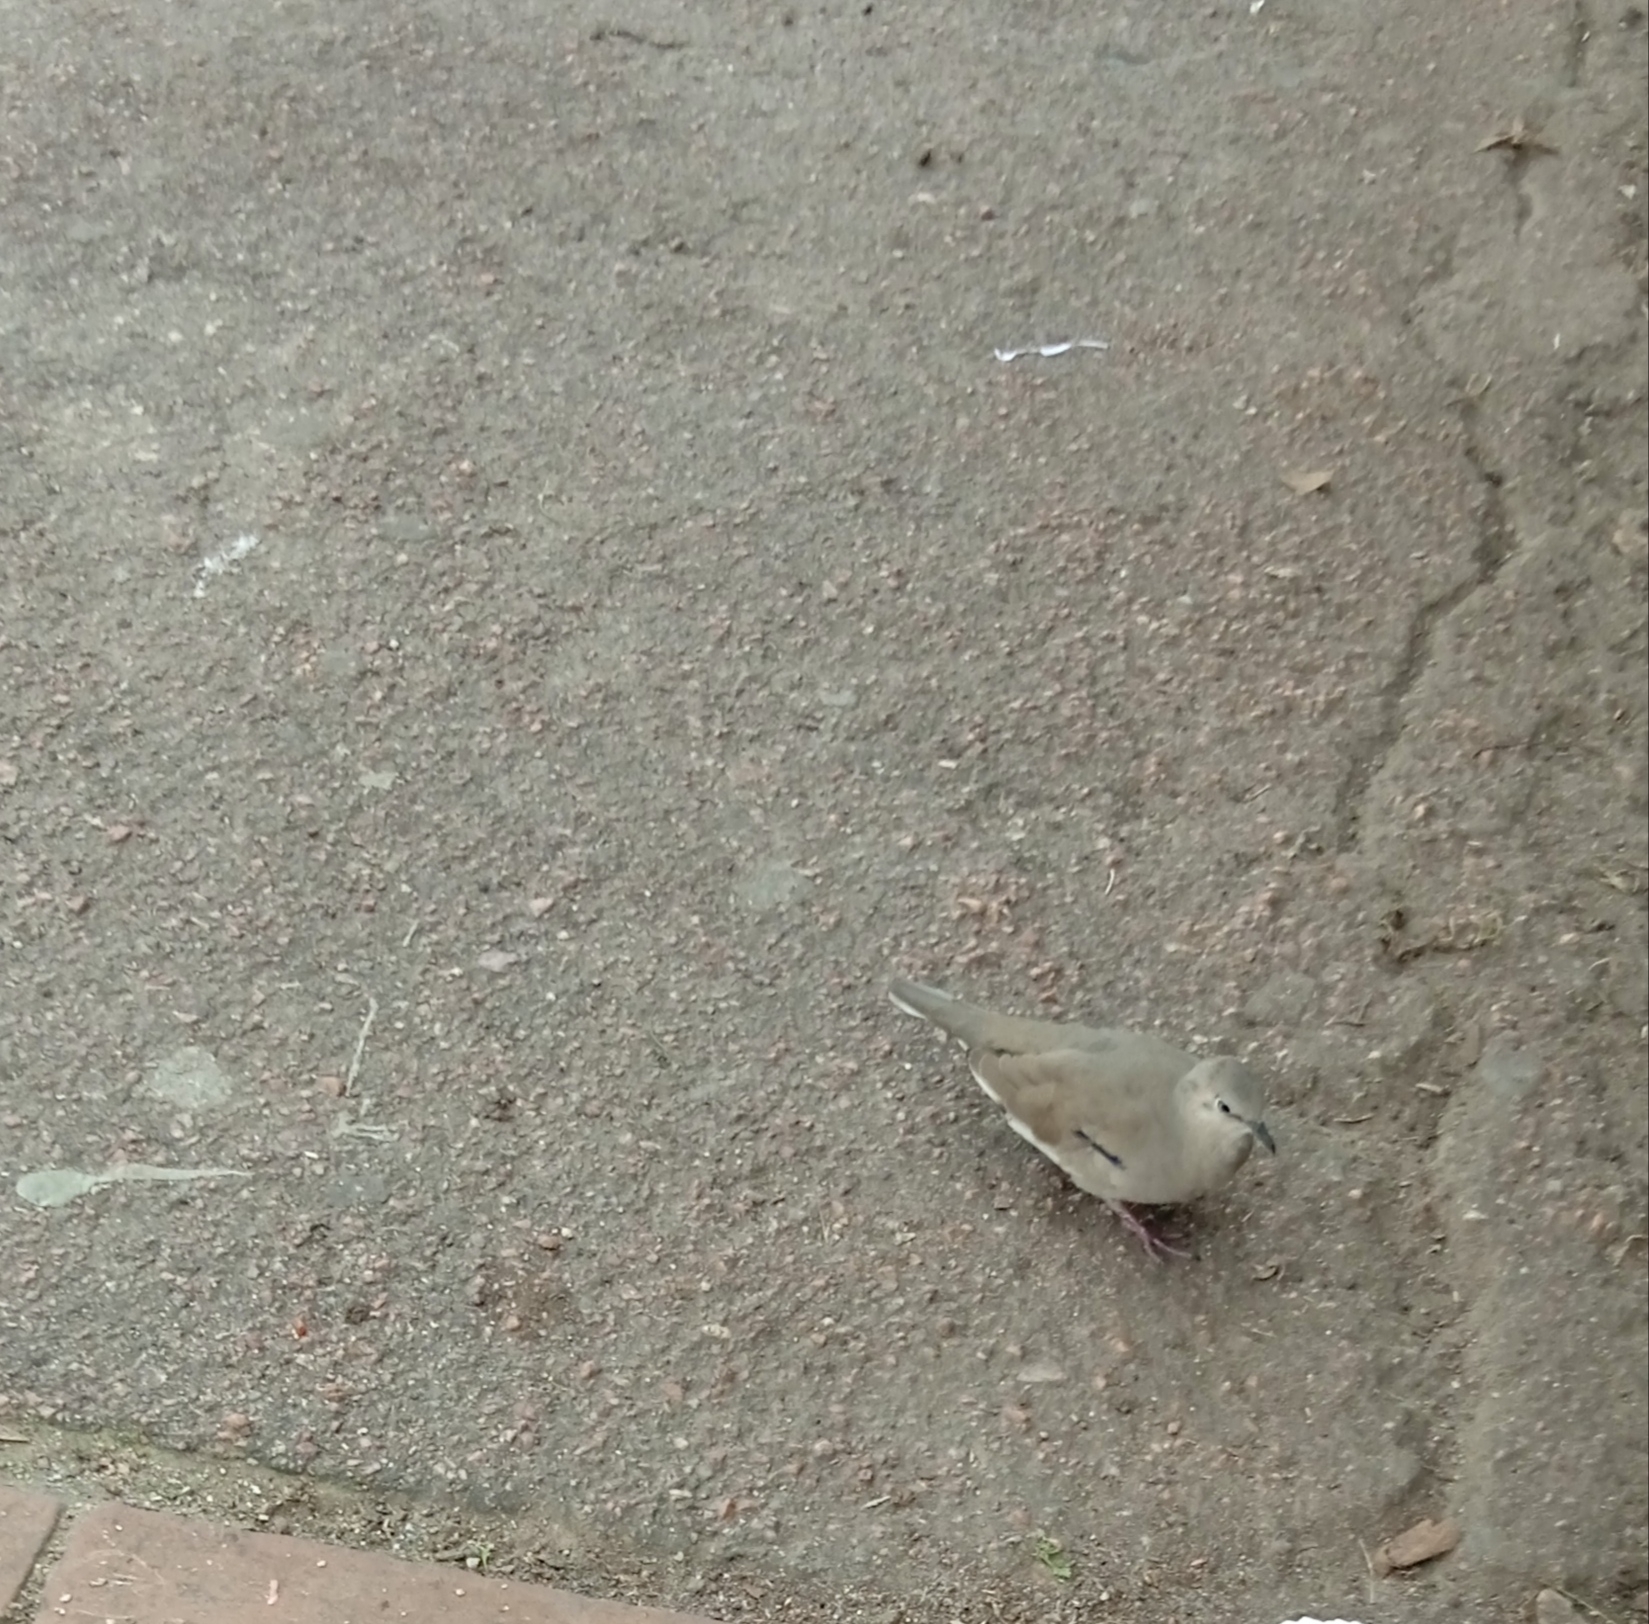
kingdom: Animalia
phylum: Chordata
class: Aves
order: Columbiformes
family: Columbidae
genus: Columbina
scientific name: Columbina picui
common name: Picui ground dove
